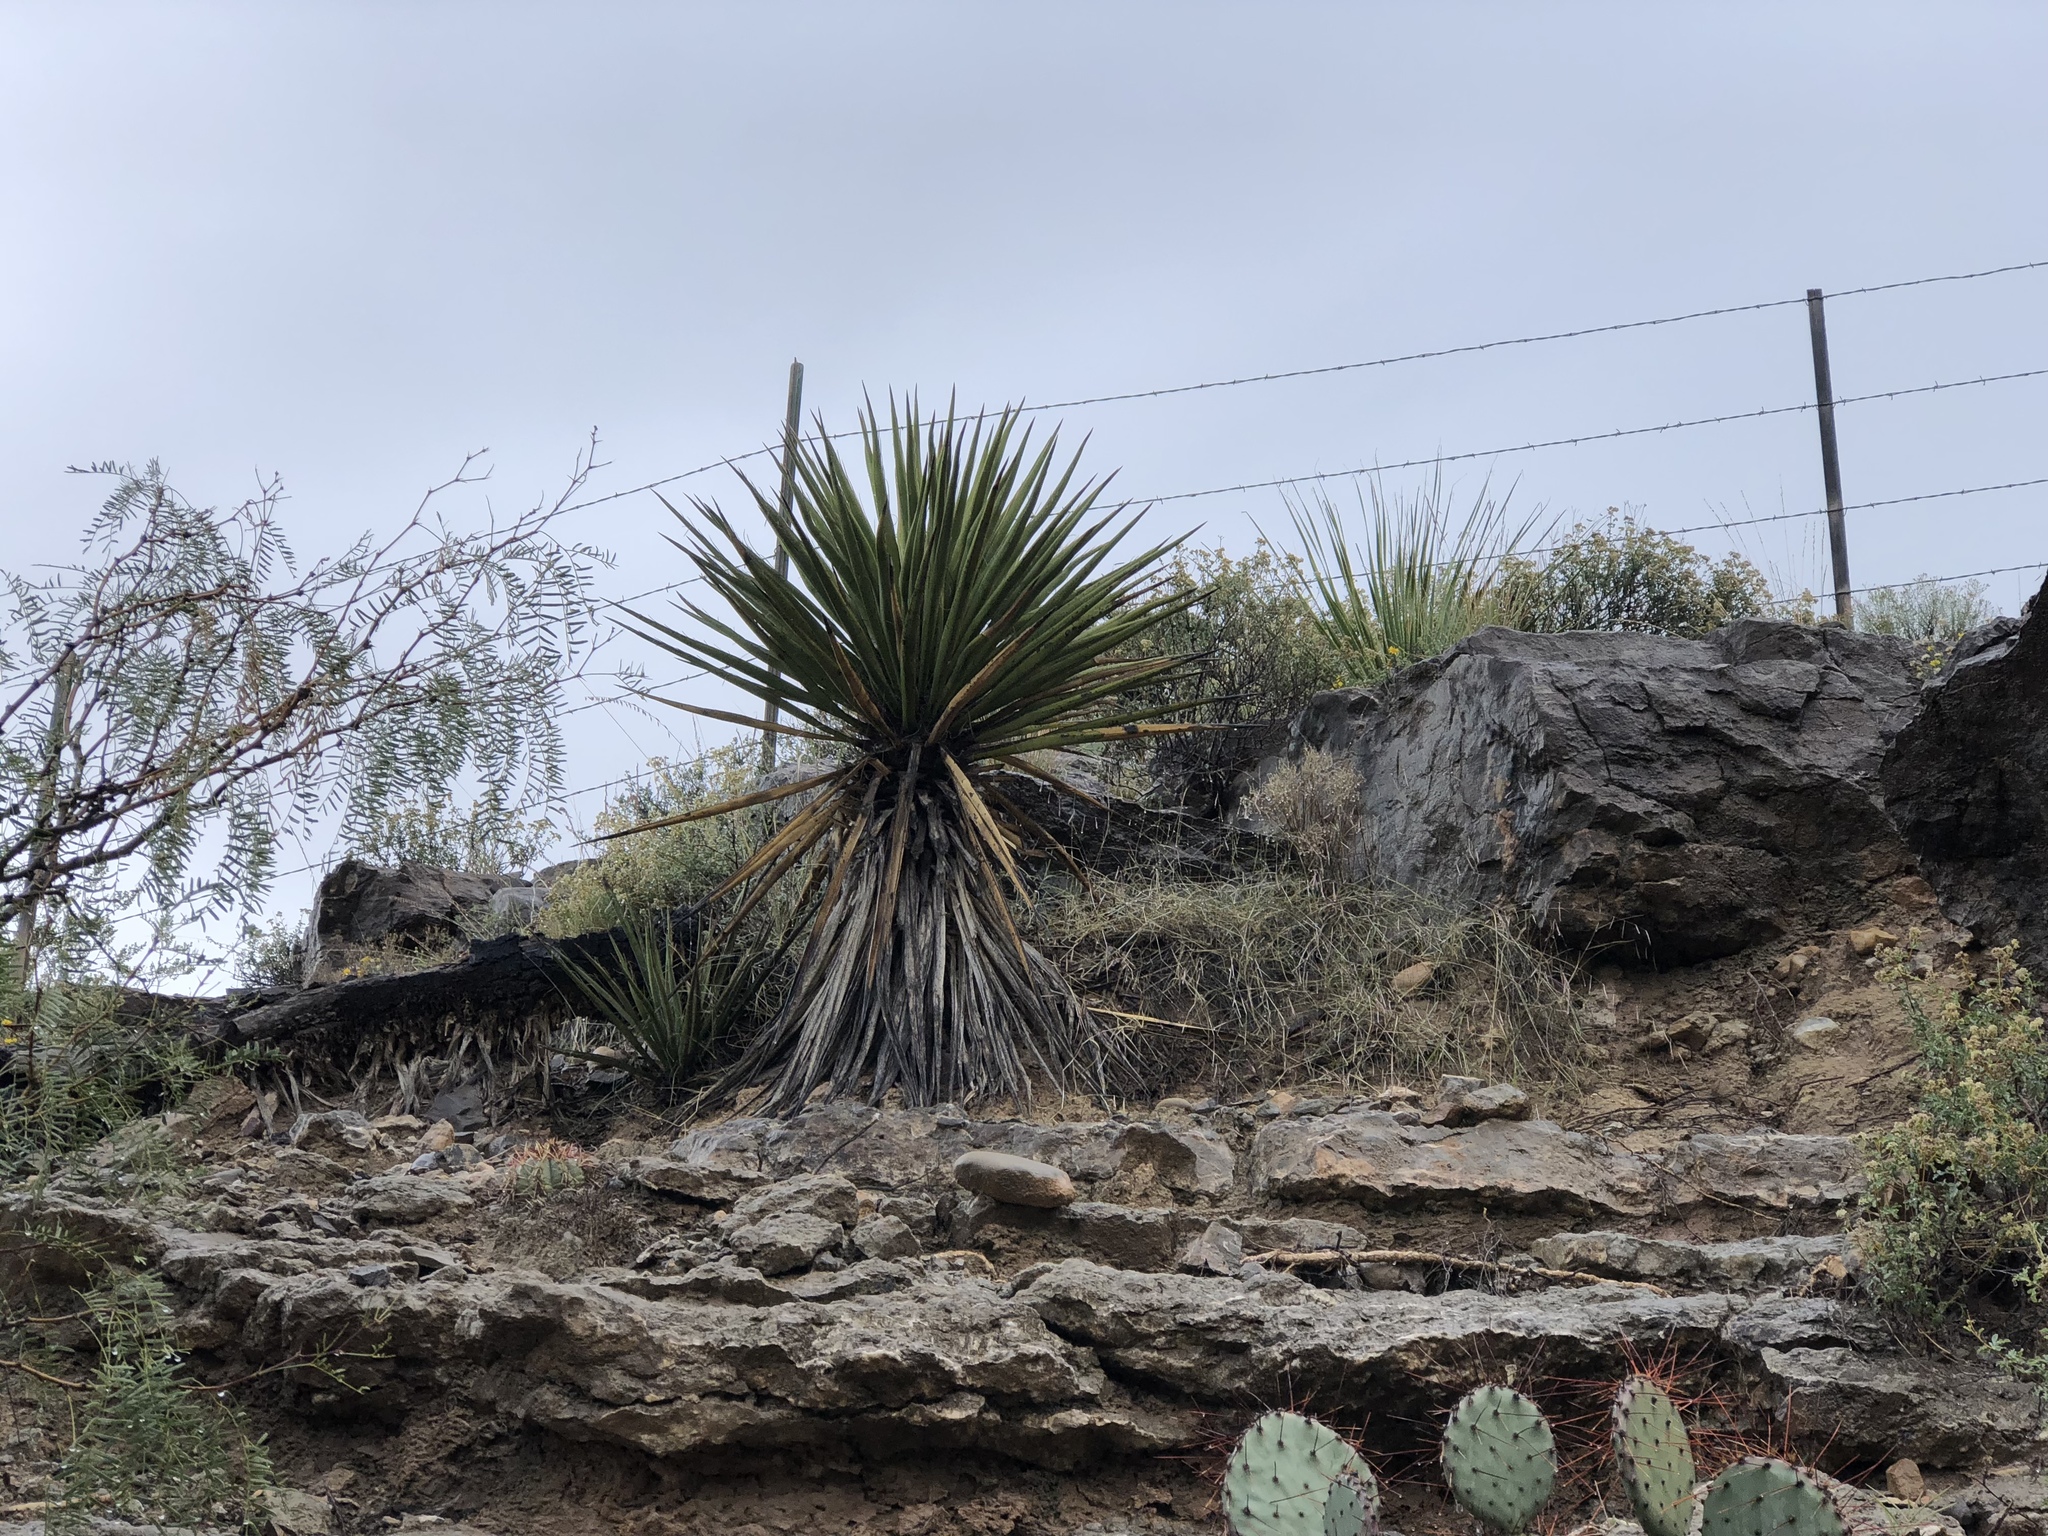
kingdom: Plantae
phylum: Tracheophyta
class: Liliopsida
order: Asparagales
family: Asparagaceae
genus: Yucca
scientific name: Yucca treculiana
